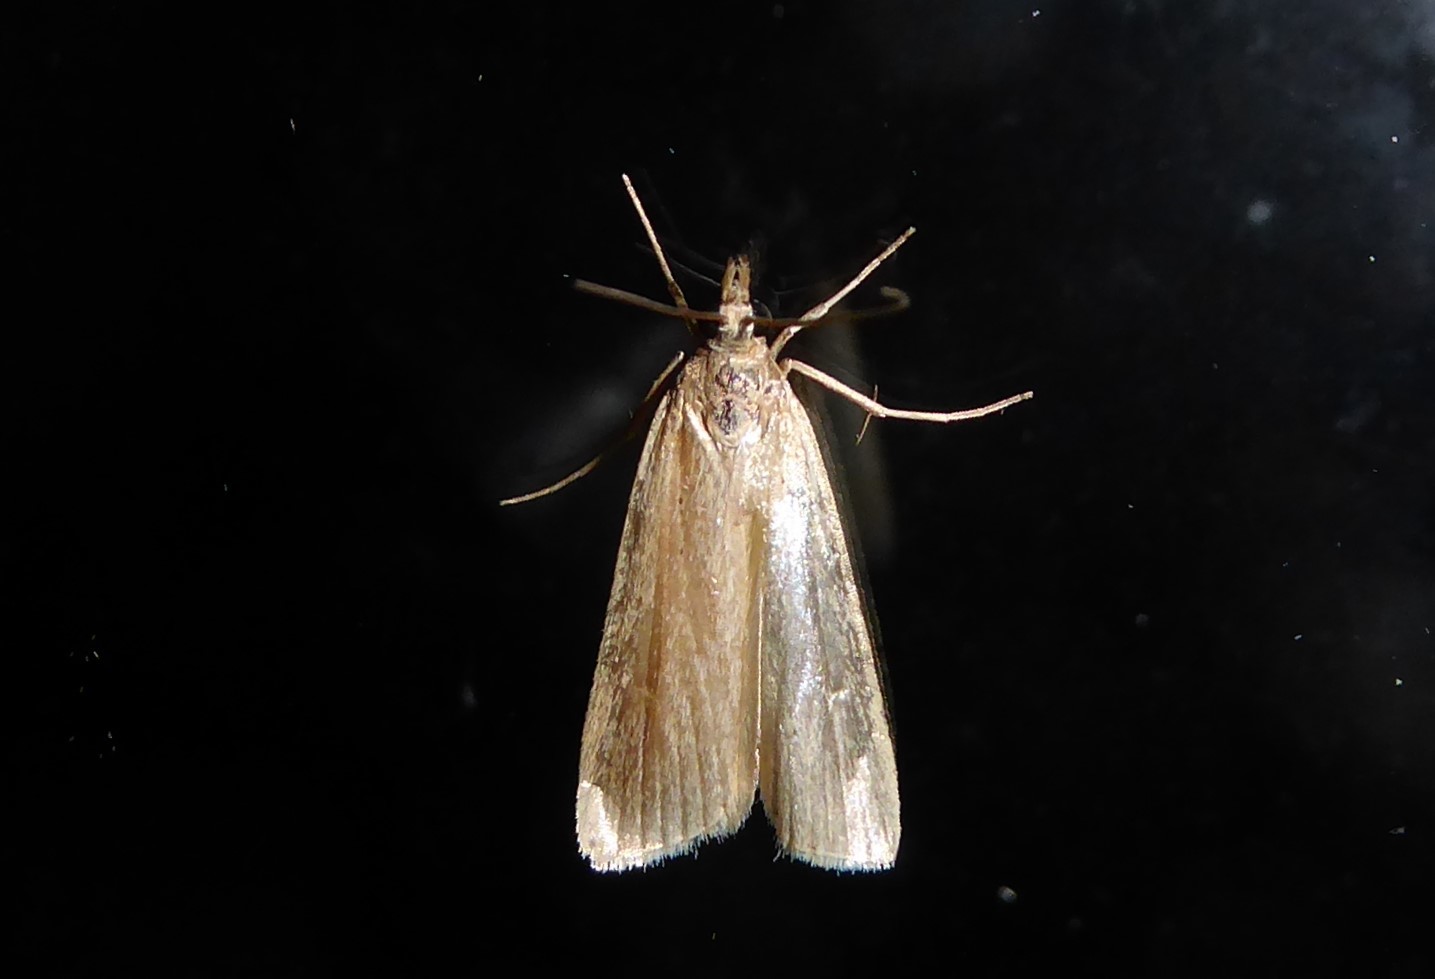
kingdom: Animalia
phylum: Arthropoda
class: Insecta
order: Lepidoptera
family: Erebidae
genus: Schrankia
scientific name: Schrankia costaestrigalis
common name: Pinion-streaked snout
